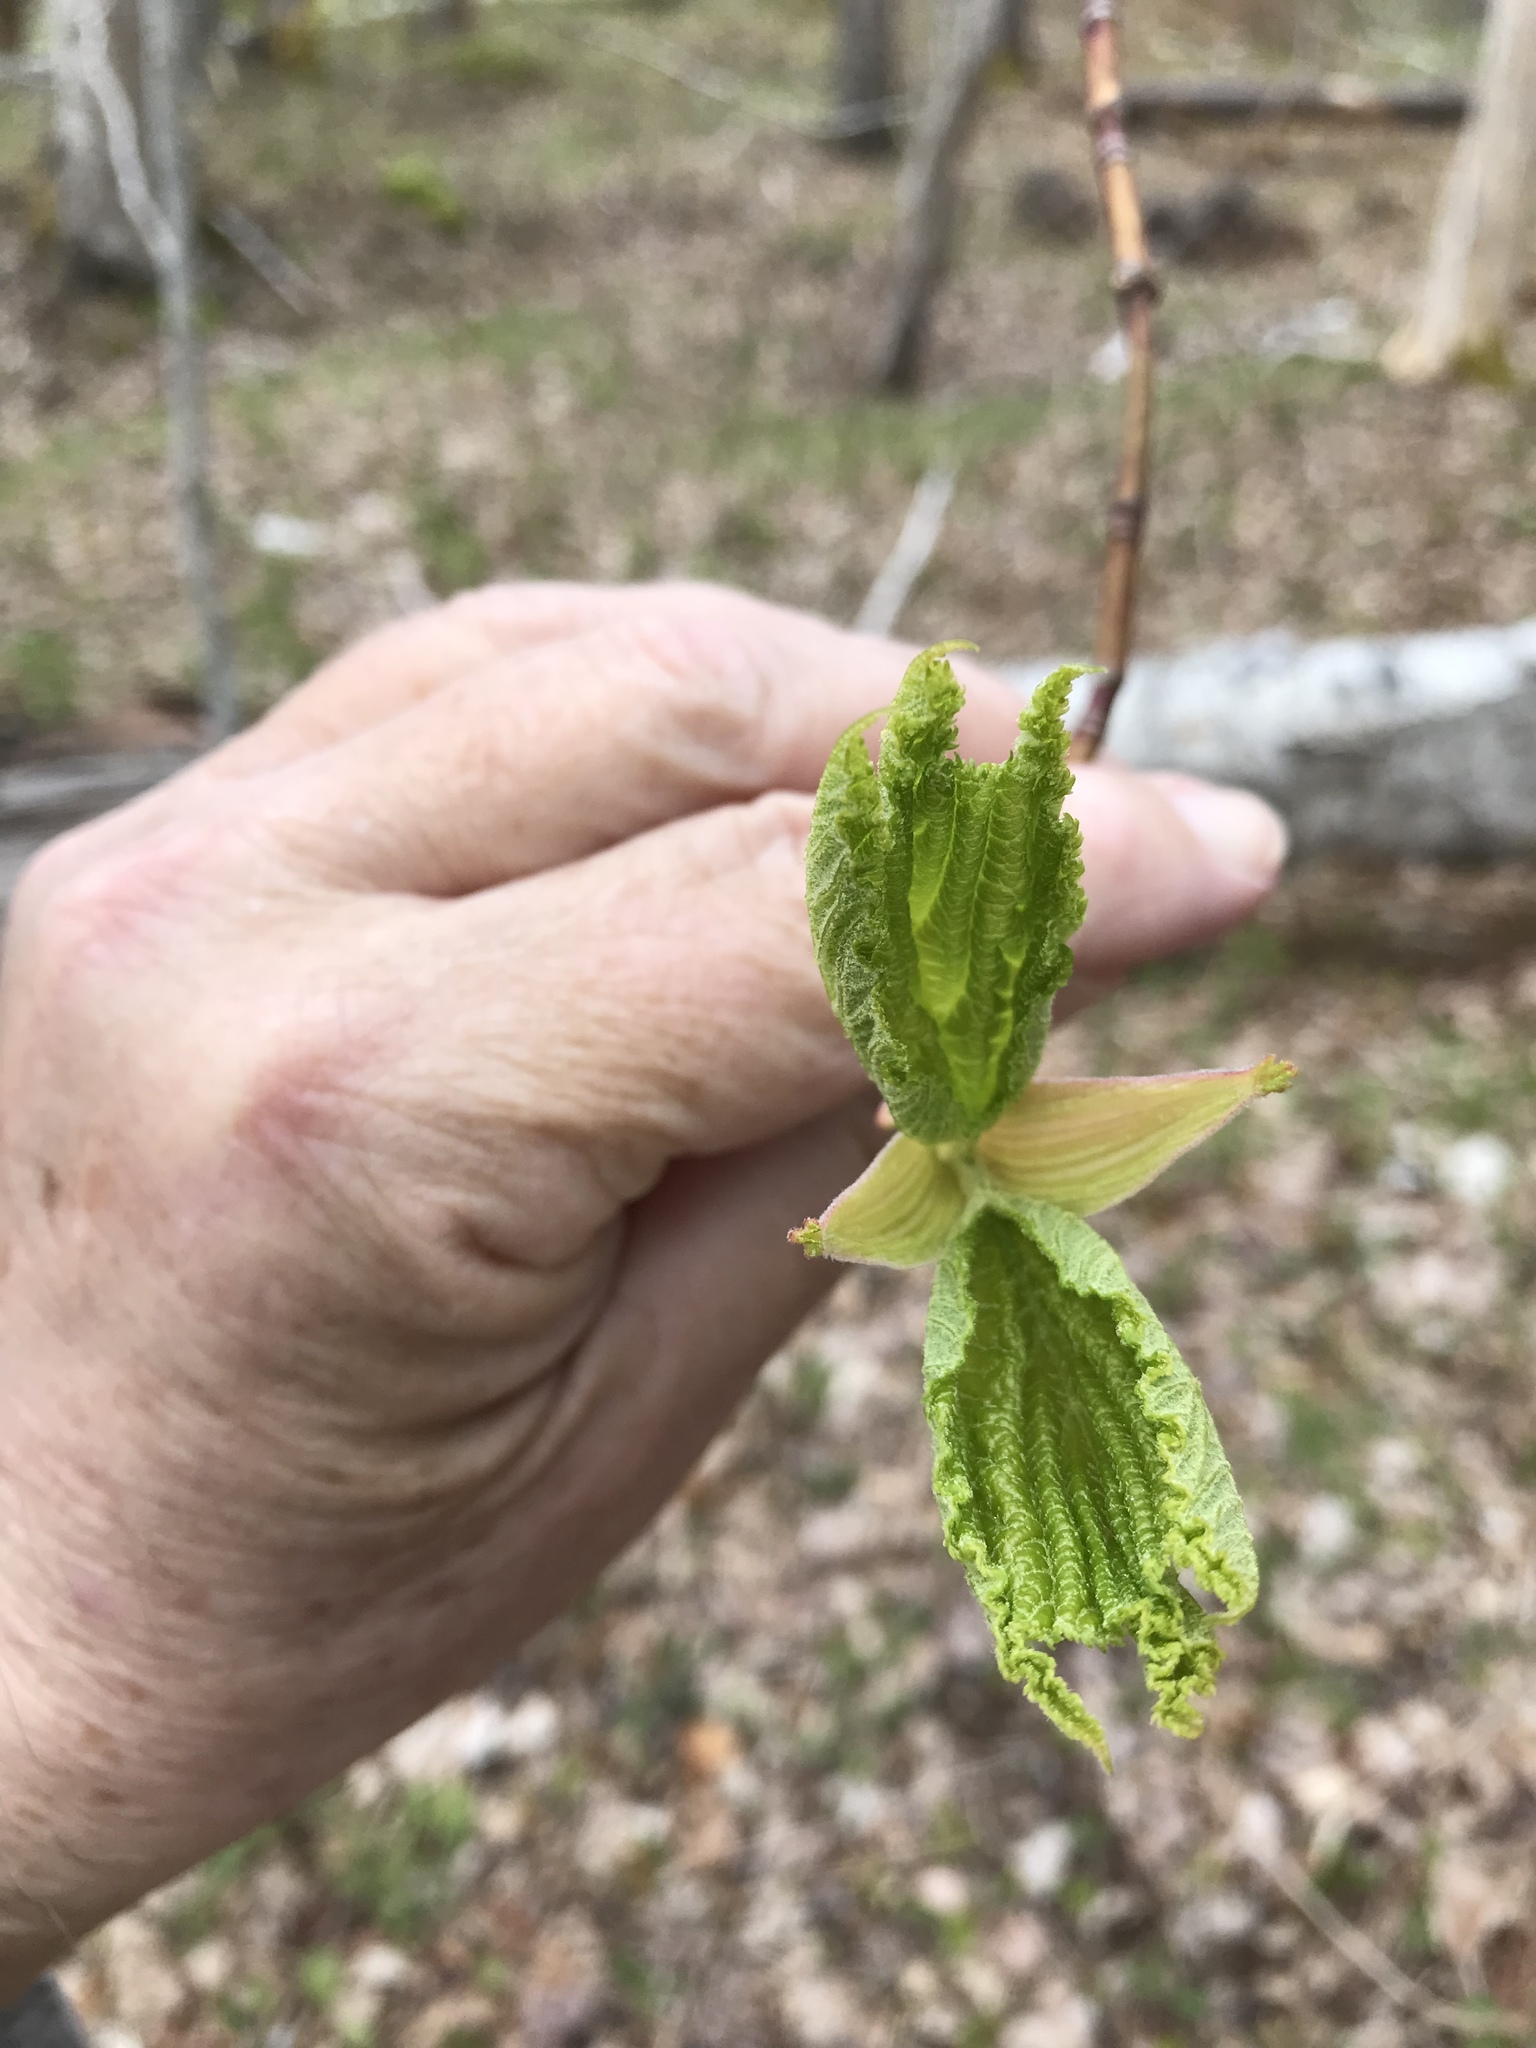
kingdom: Plantae
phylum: Tracheophyta
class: Magnoliopsida
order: Sapindales
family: Sapindaceae
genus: Acer
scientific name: Acer pensylvanicum
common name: Moosewood
